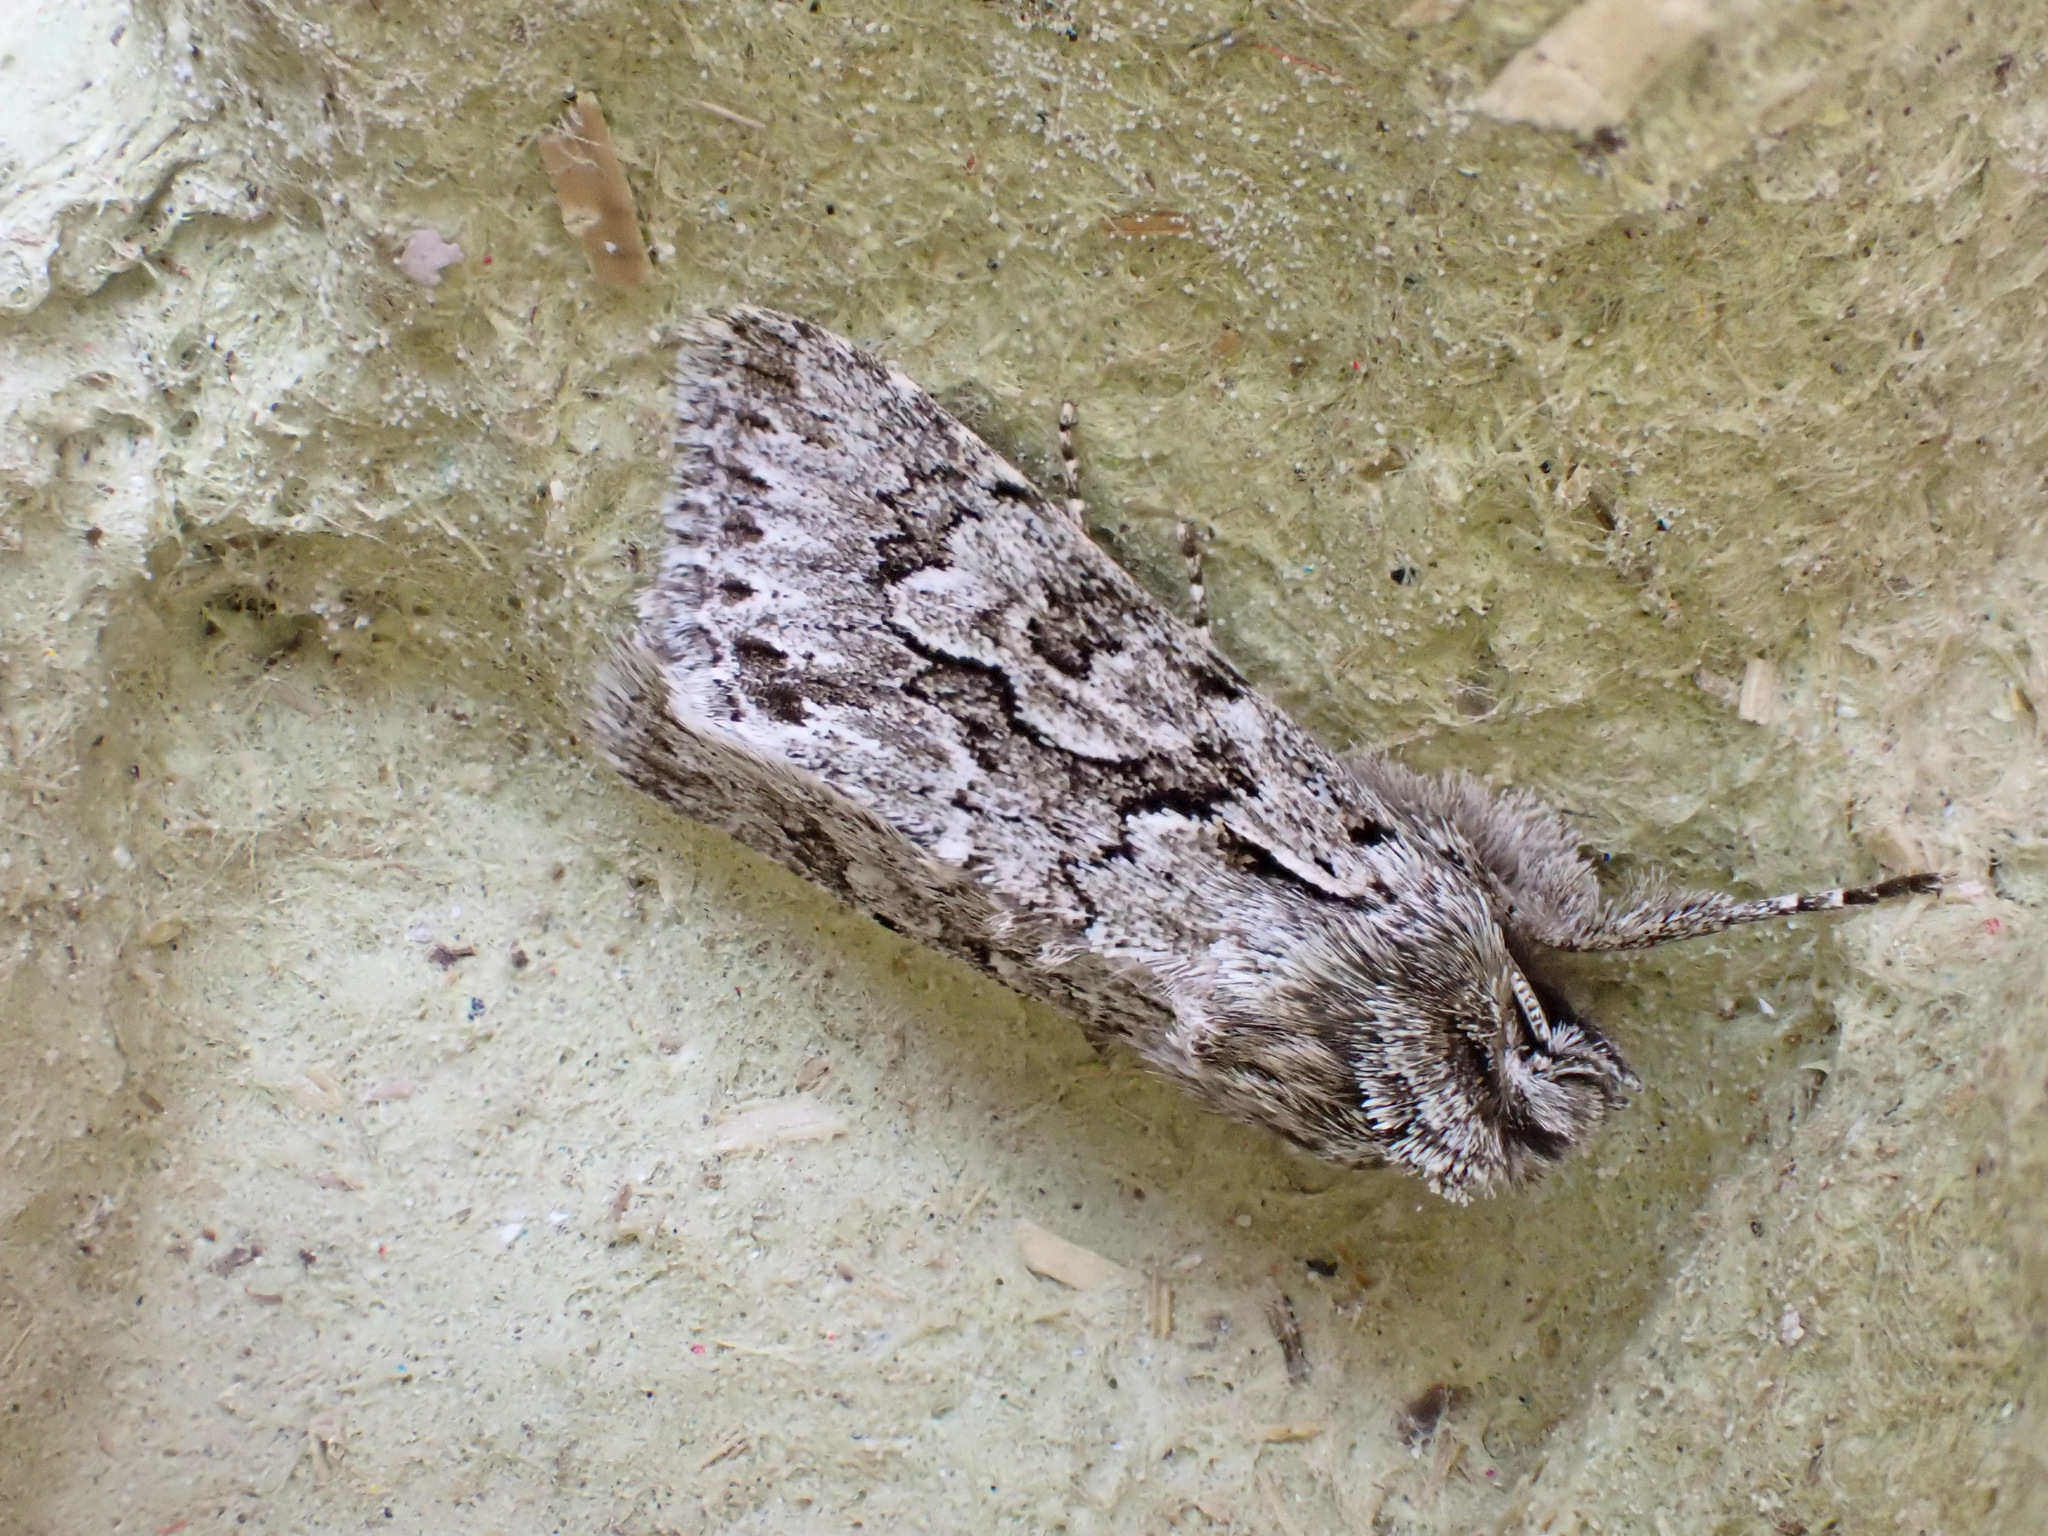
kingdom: Animalia
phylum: Arthropoda
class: Insecta
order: Lepidoptera
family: Noctuidae
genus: Xylocampa
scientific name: Xylocampa areola
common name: Early grey
